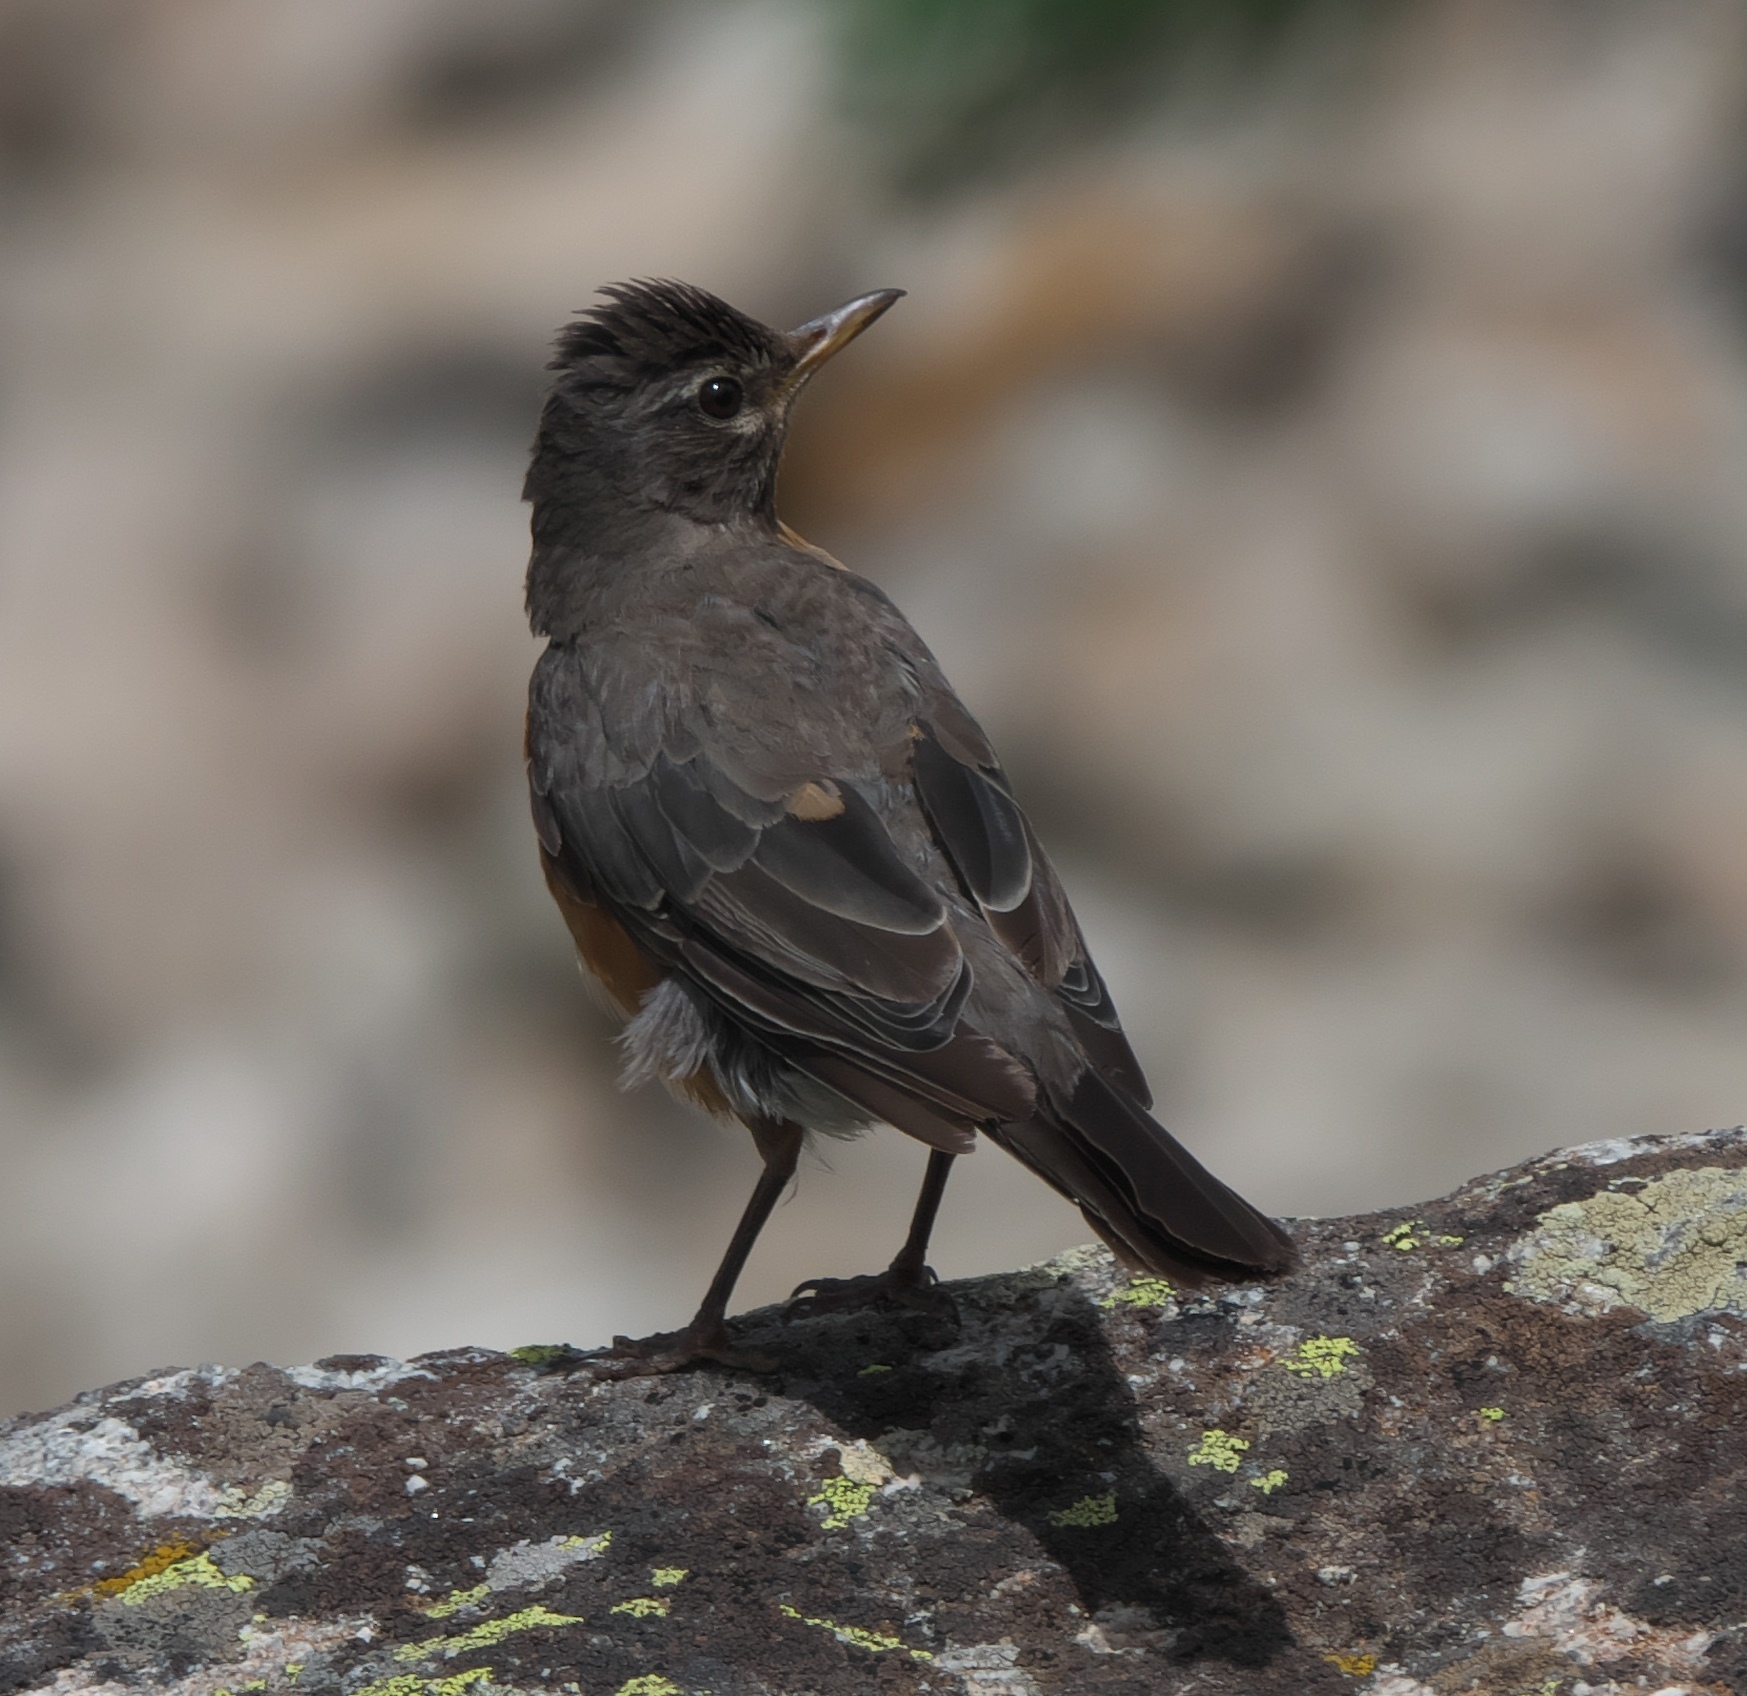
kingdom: Animalia
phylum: Chordata
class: Aves
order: Passeriformes
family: Turdidae
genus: Turdus
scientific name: Turdus migratorius
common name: American robin
